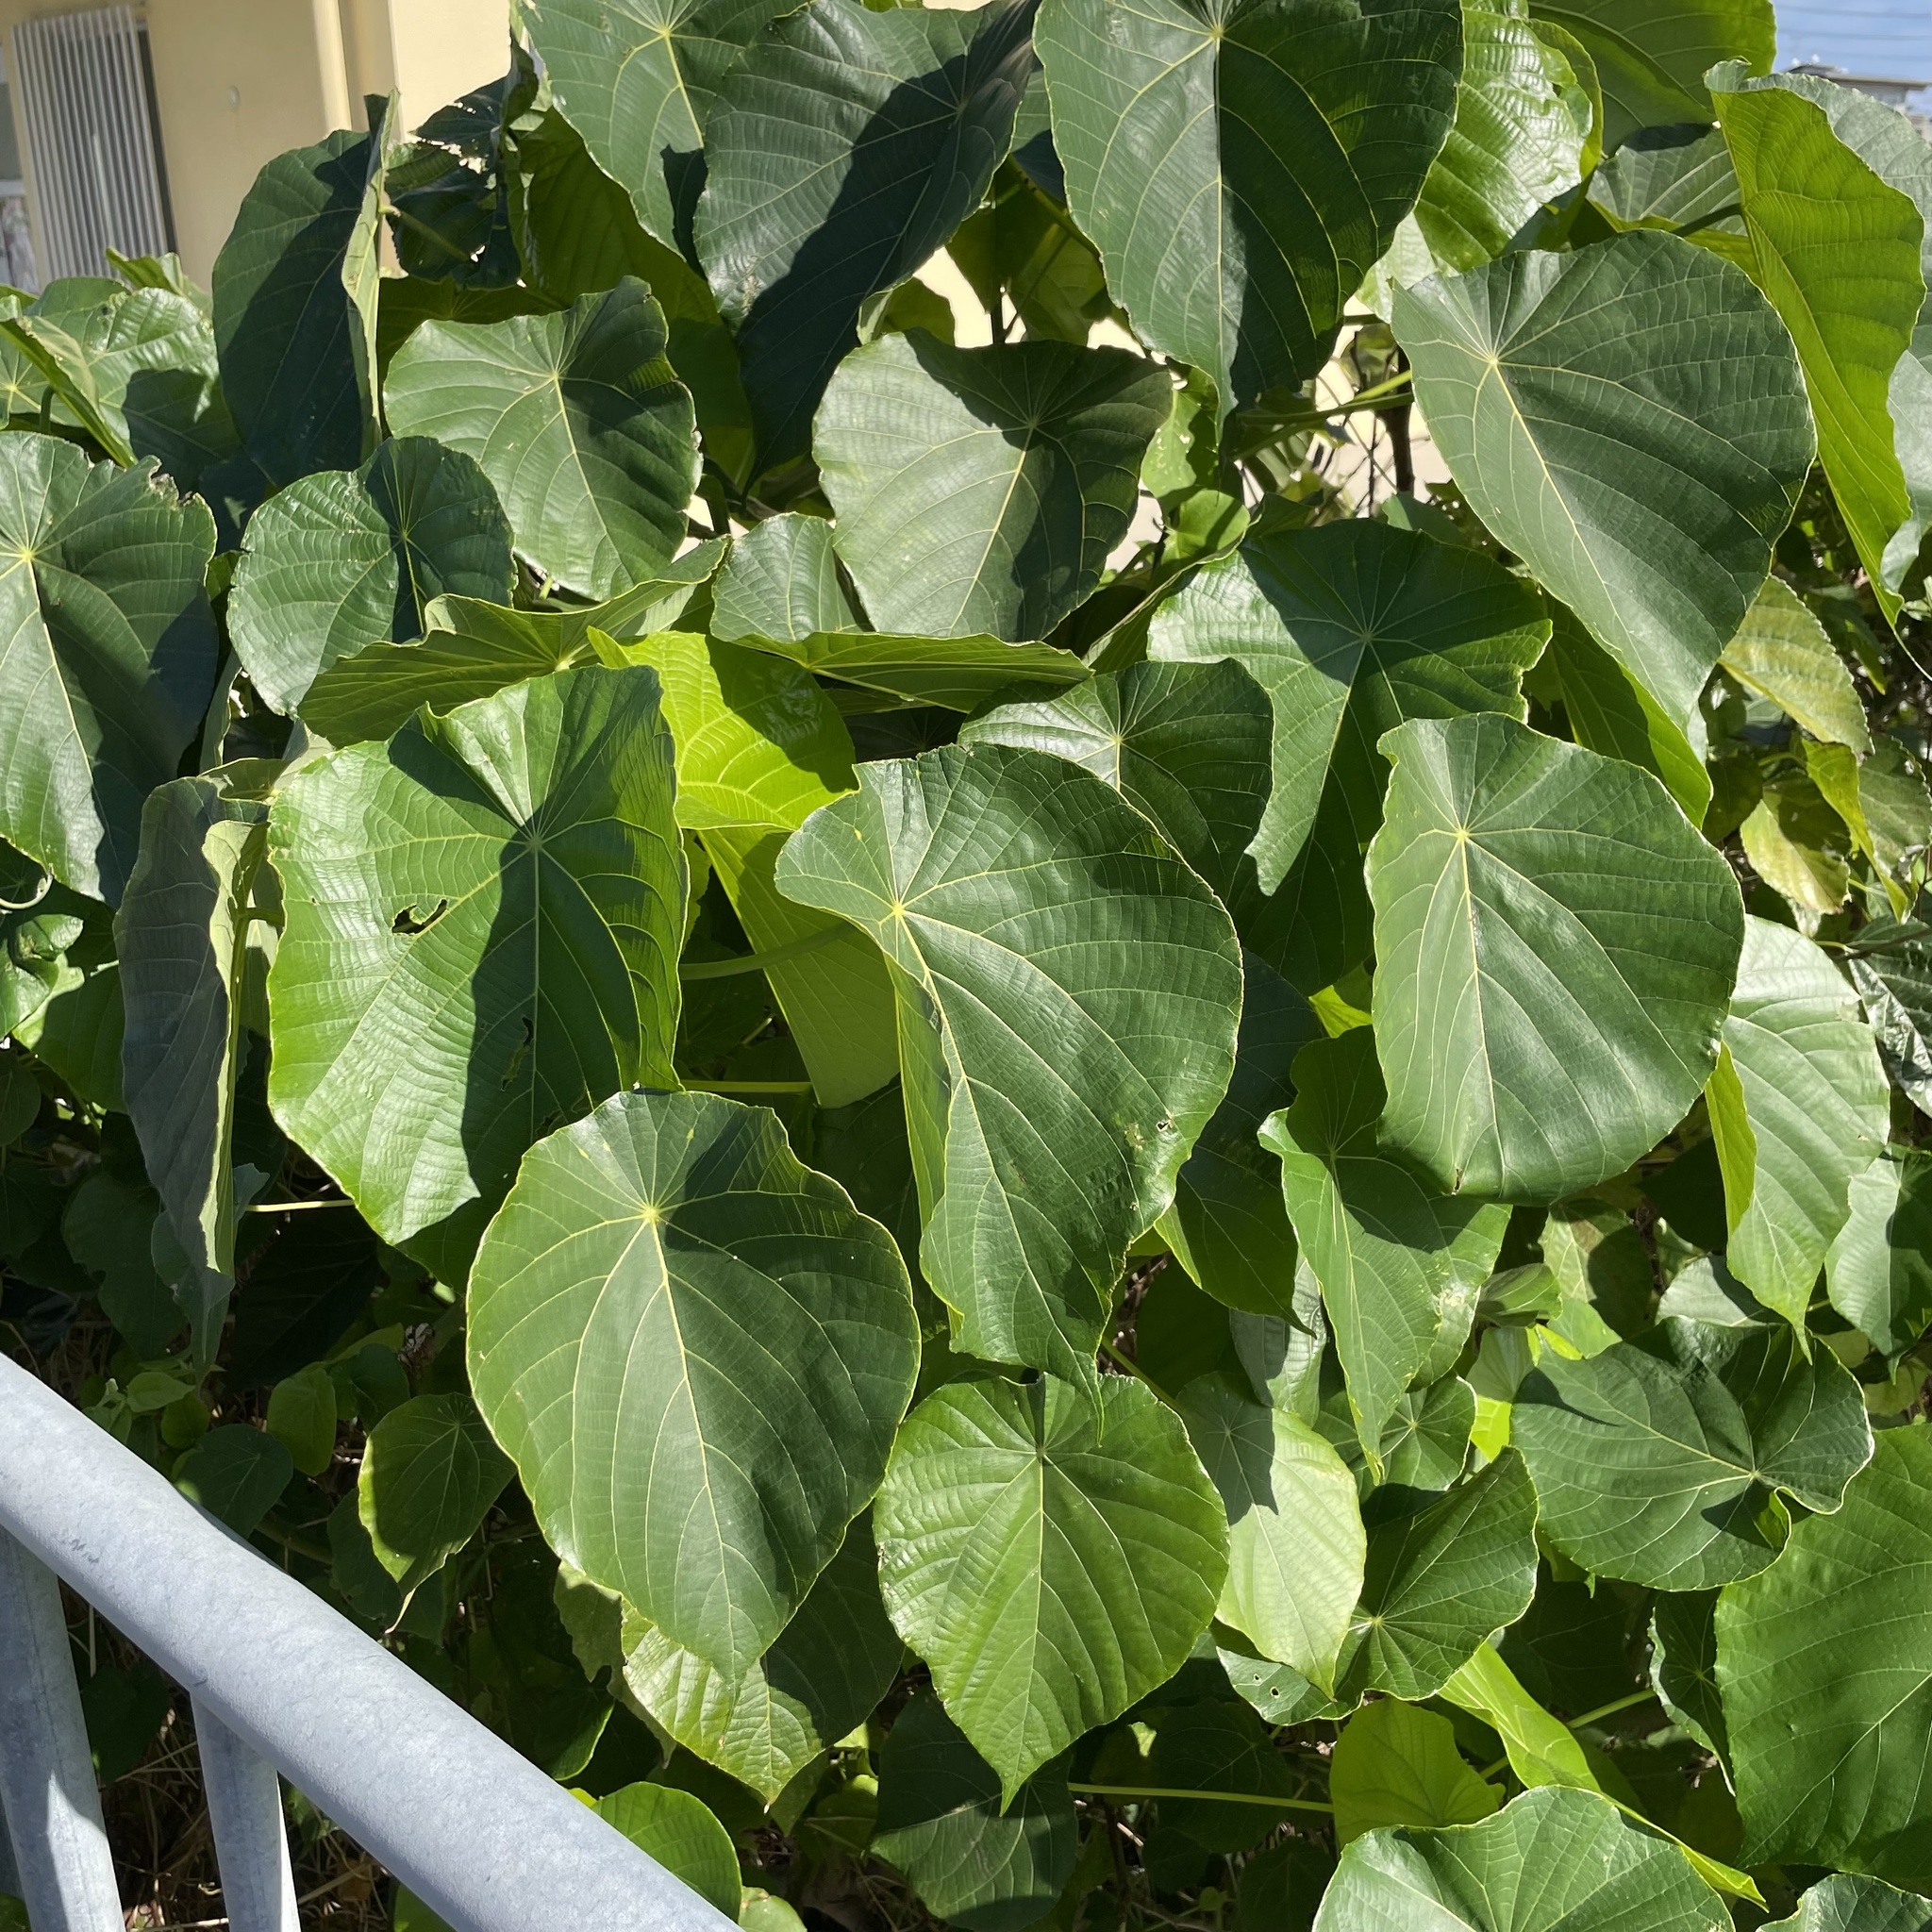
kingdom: Plantae
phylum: Tracheophyta
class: Magnoliopsida
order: Malpighiales
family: Euphorbiaceae
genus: Macaranga
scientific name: Macaranga tanarius
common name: Parasol leaf tree
